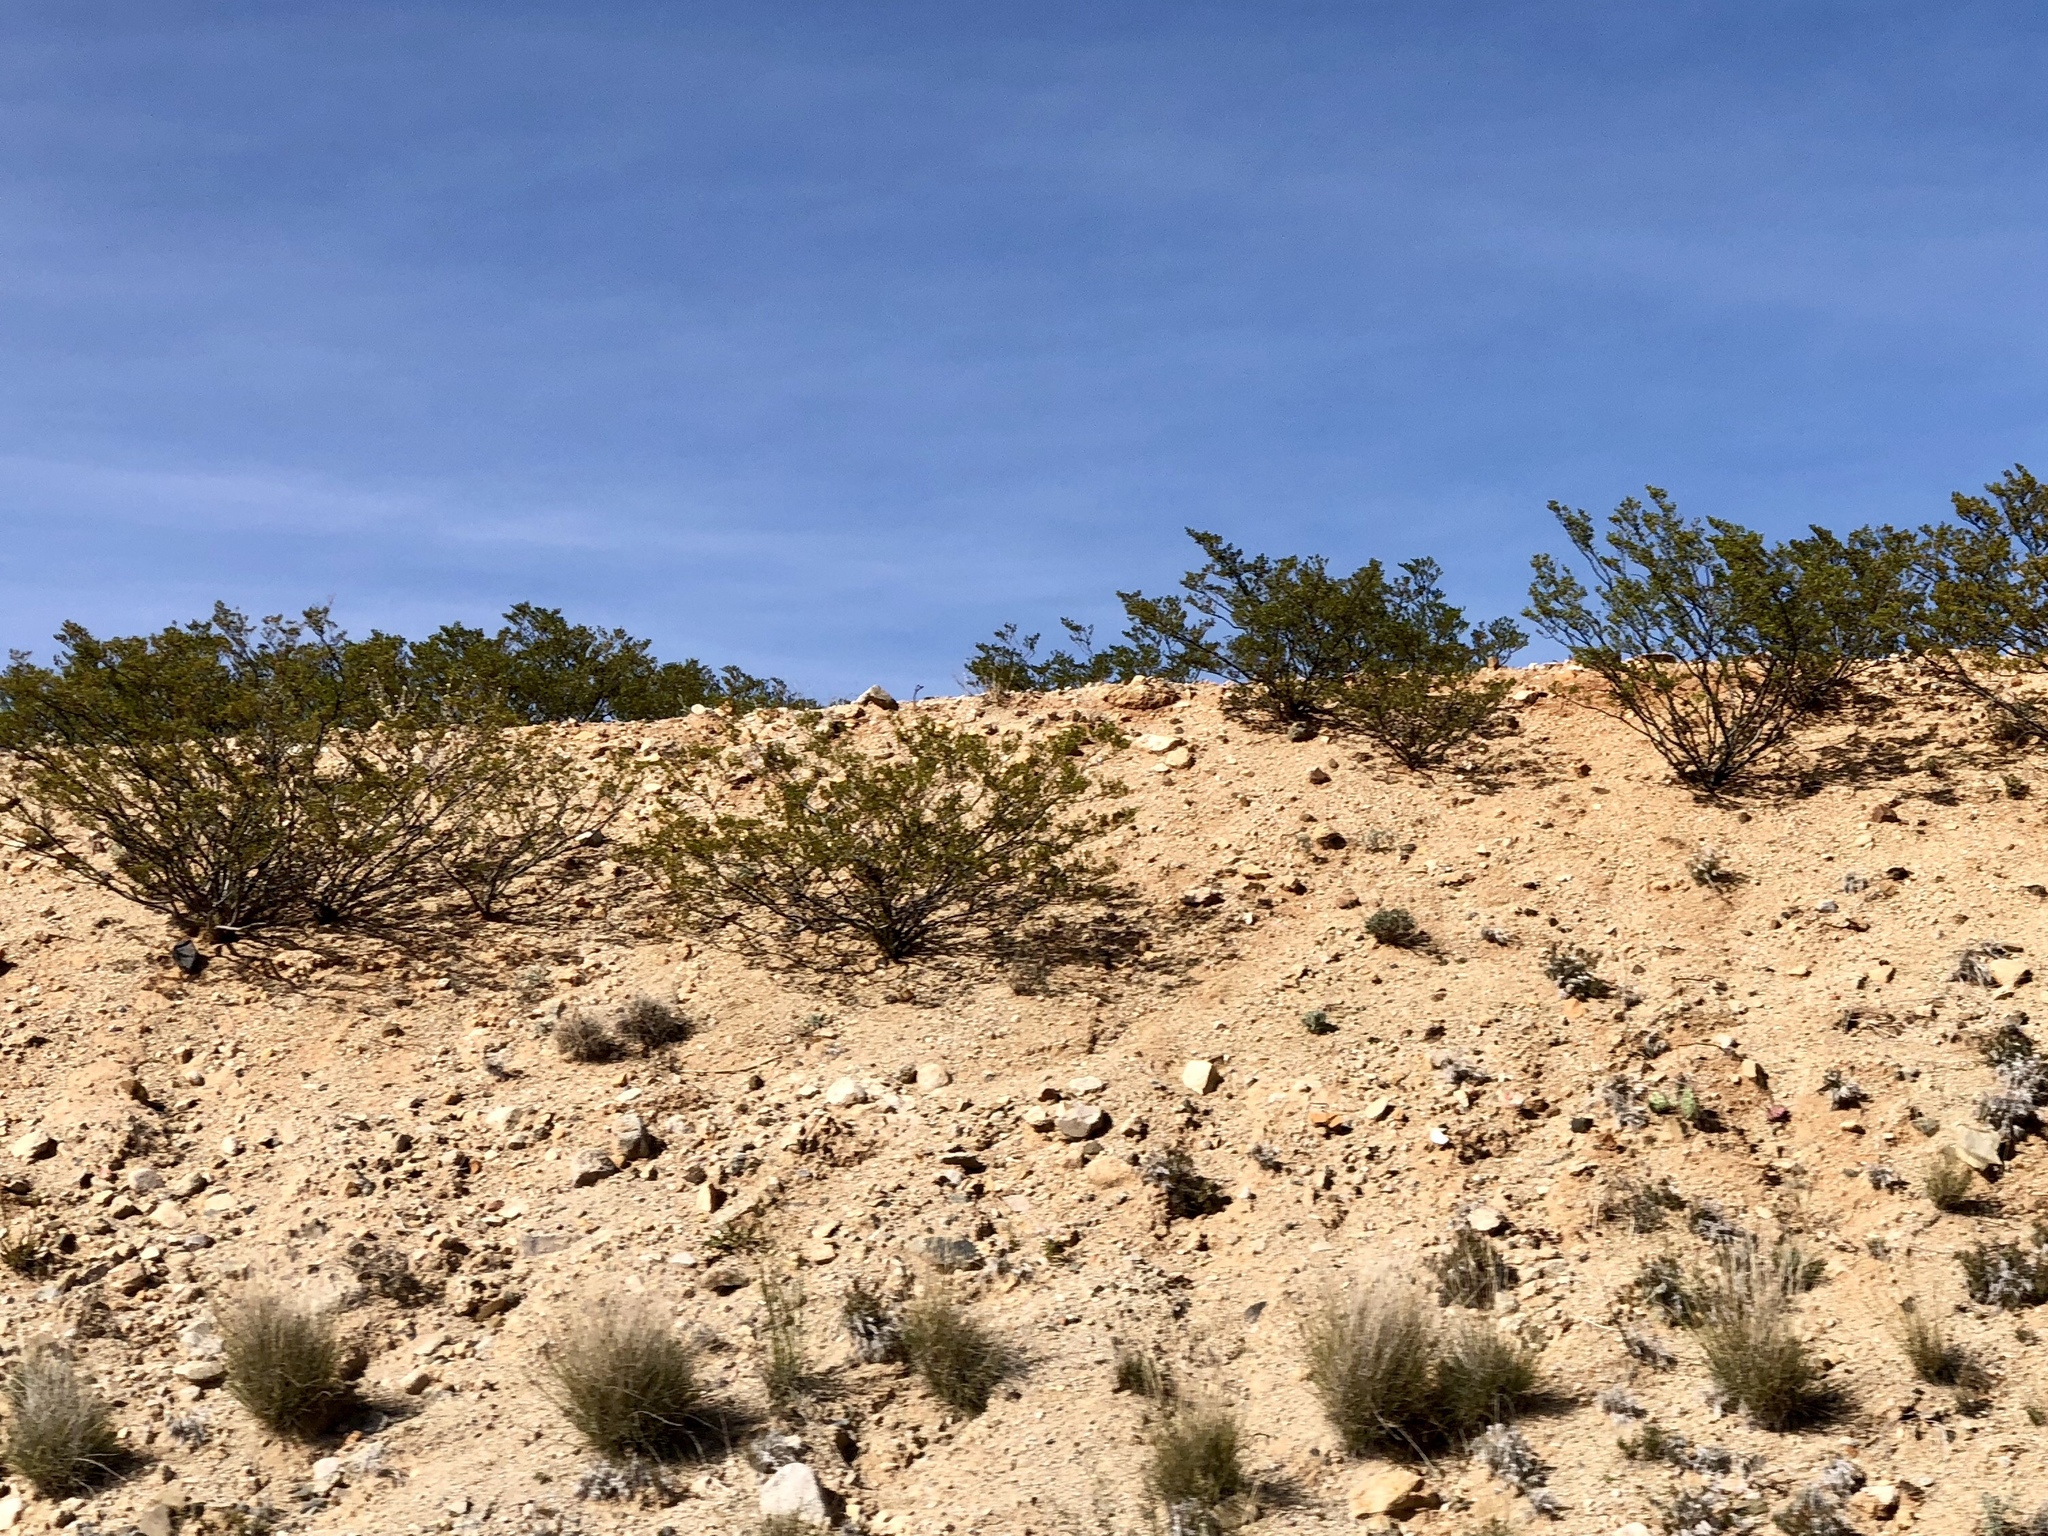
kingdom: Plantae
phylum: Tracheophyta
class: Magnoliopsida
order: Zygophyllales
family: Zygophyllaceae
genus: Larrea
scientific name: Larrea tridentata
